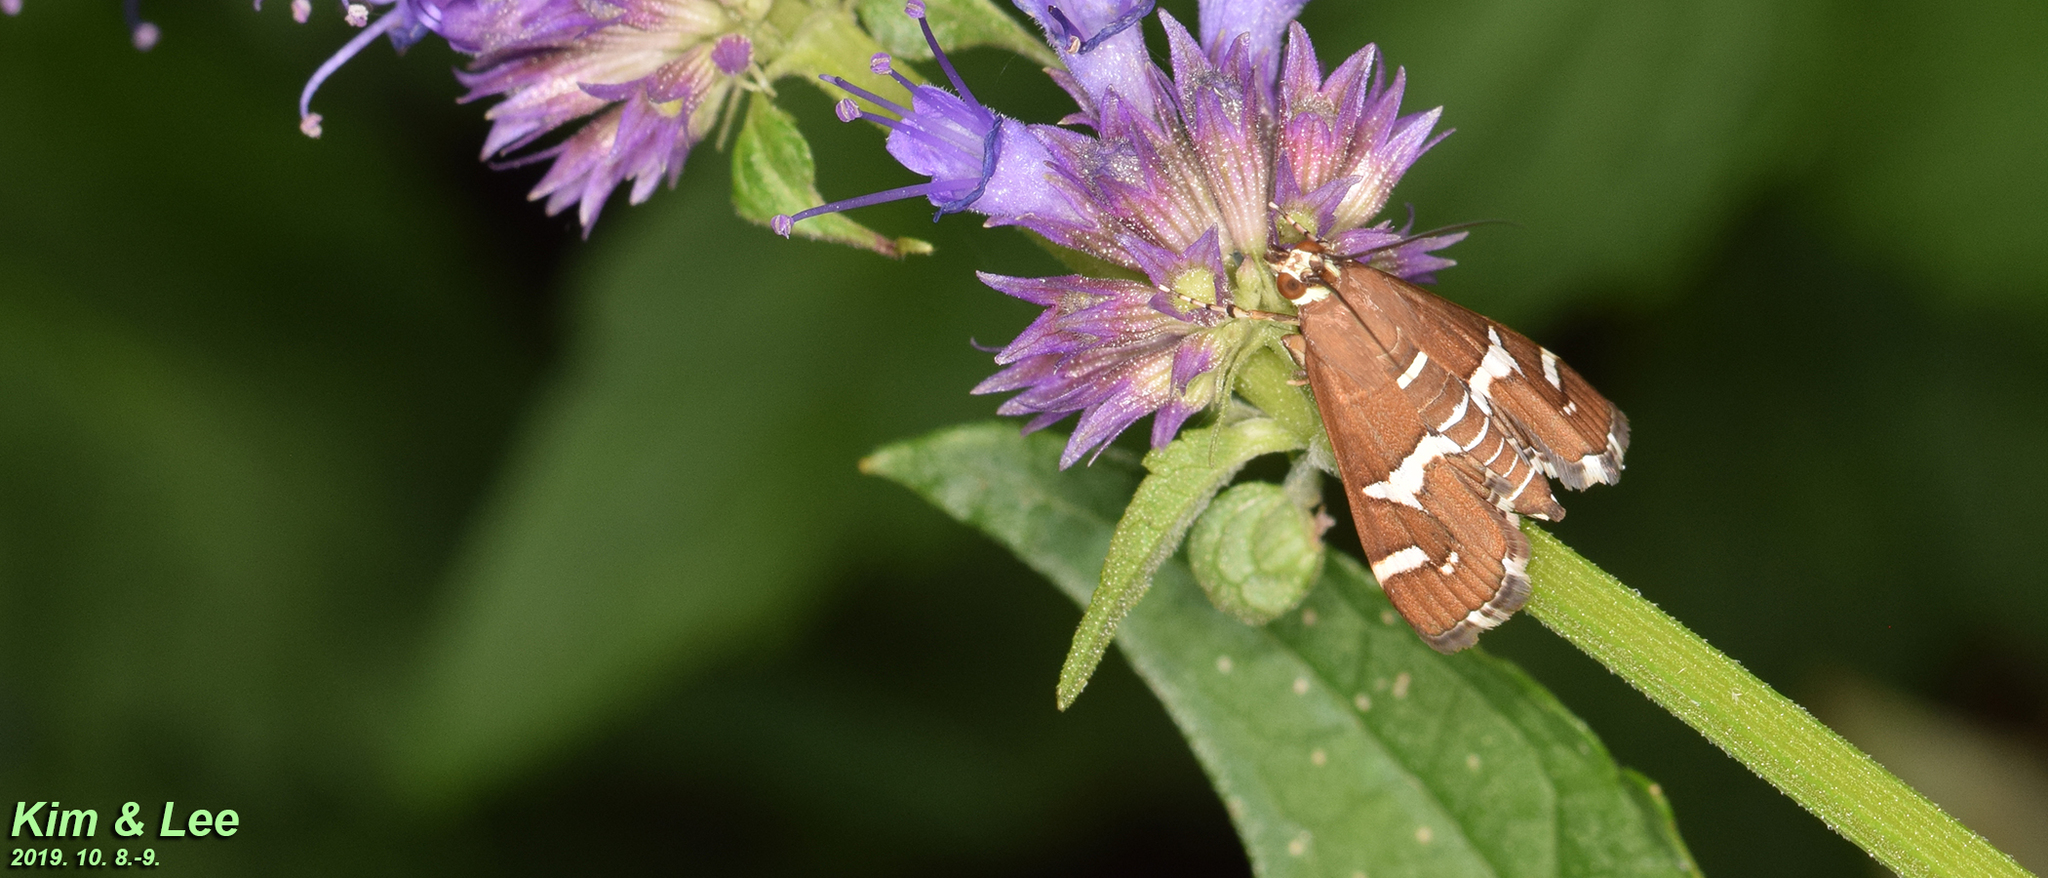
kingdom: Animalia
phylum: Arthropoda
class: Insecta
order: Lepidoptera
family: Crambidae
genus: Spoladea
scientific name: Spoladea recurvalis
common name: Beet webworm moth
